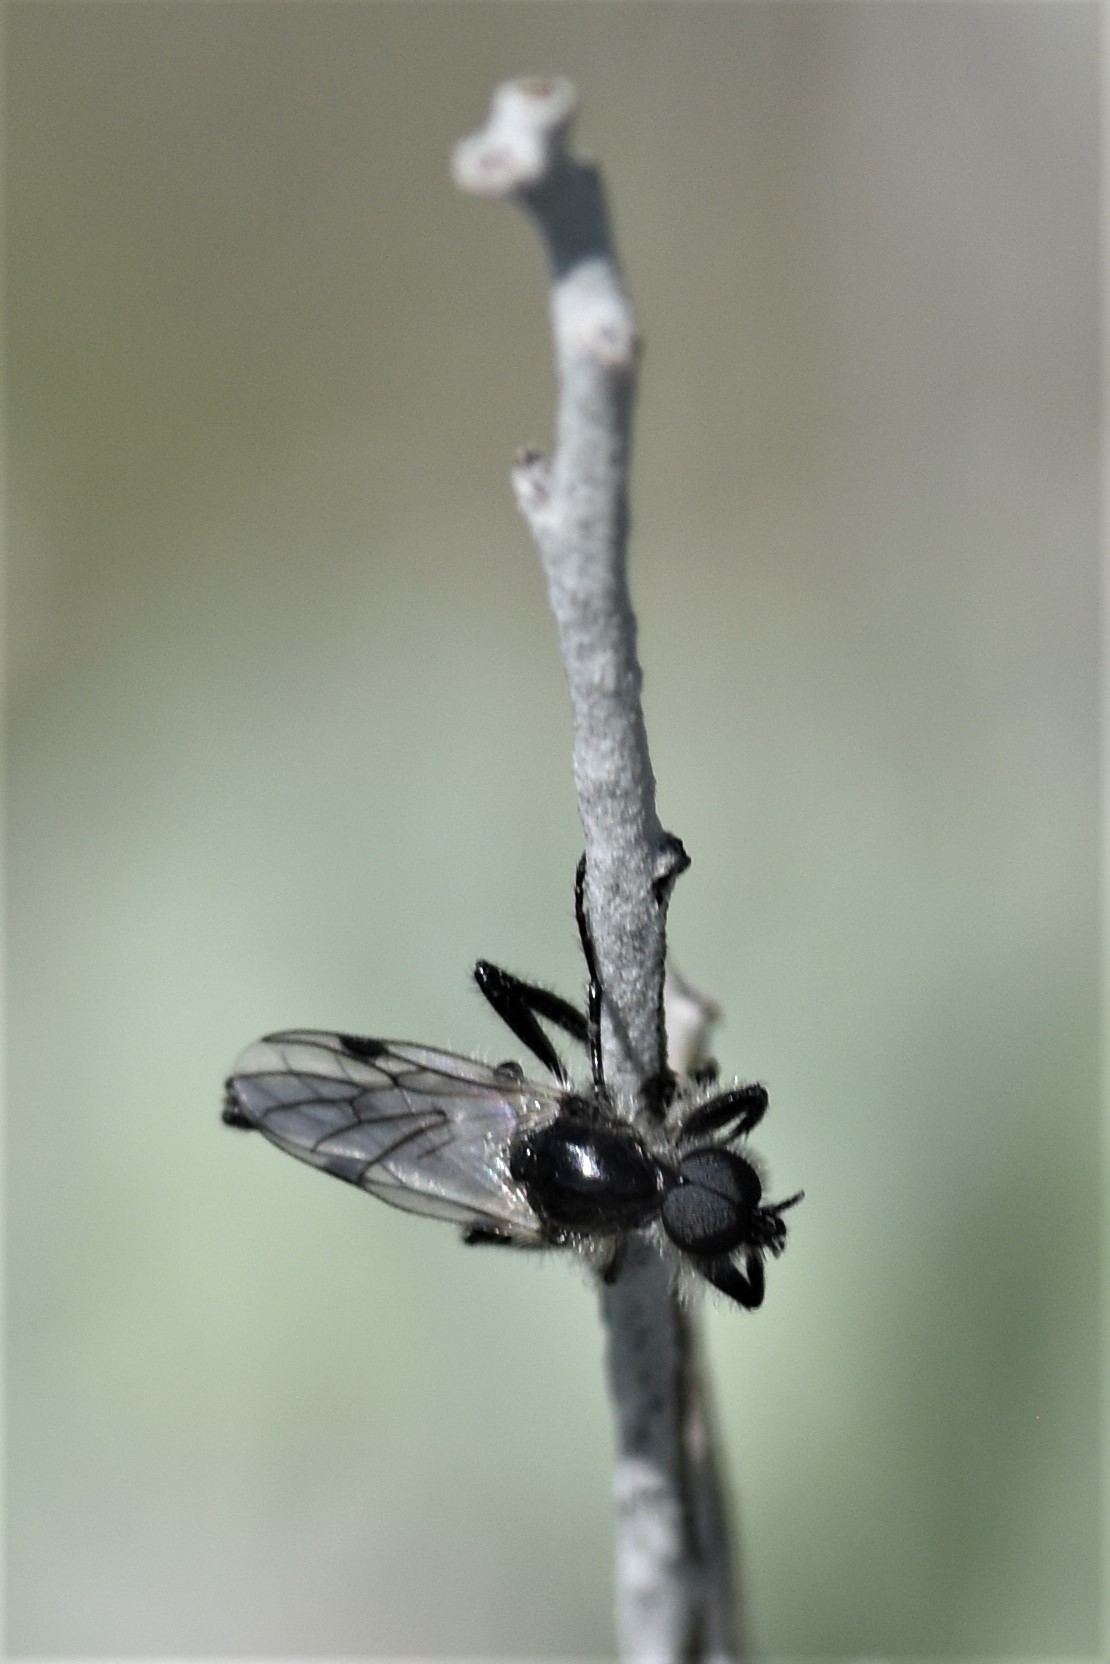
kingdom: Animalia
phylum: Arthropoda
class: Insecta
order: Diptera
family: Bibionidae
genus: Bibio
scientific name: Bibio albipennis
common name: White-winged march fly
